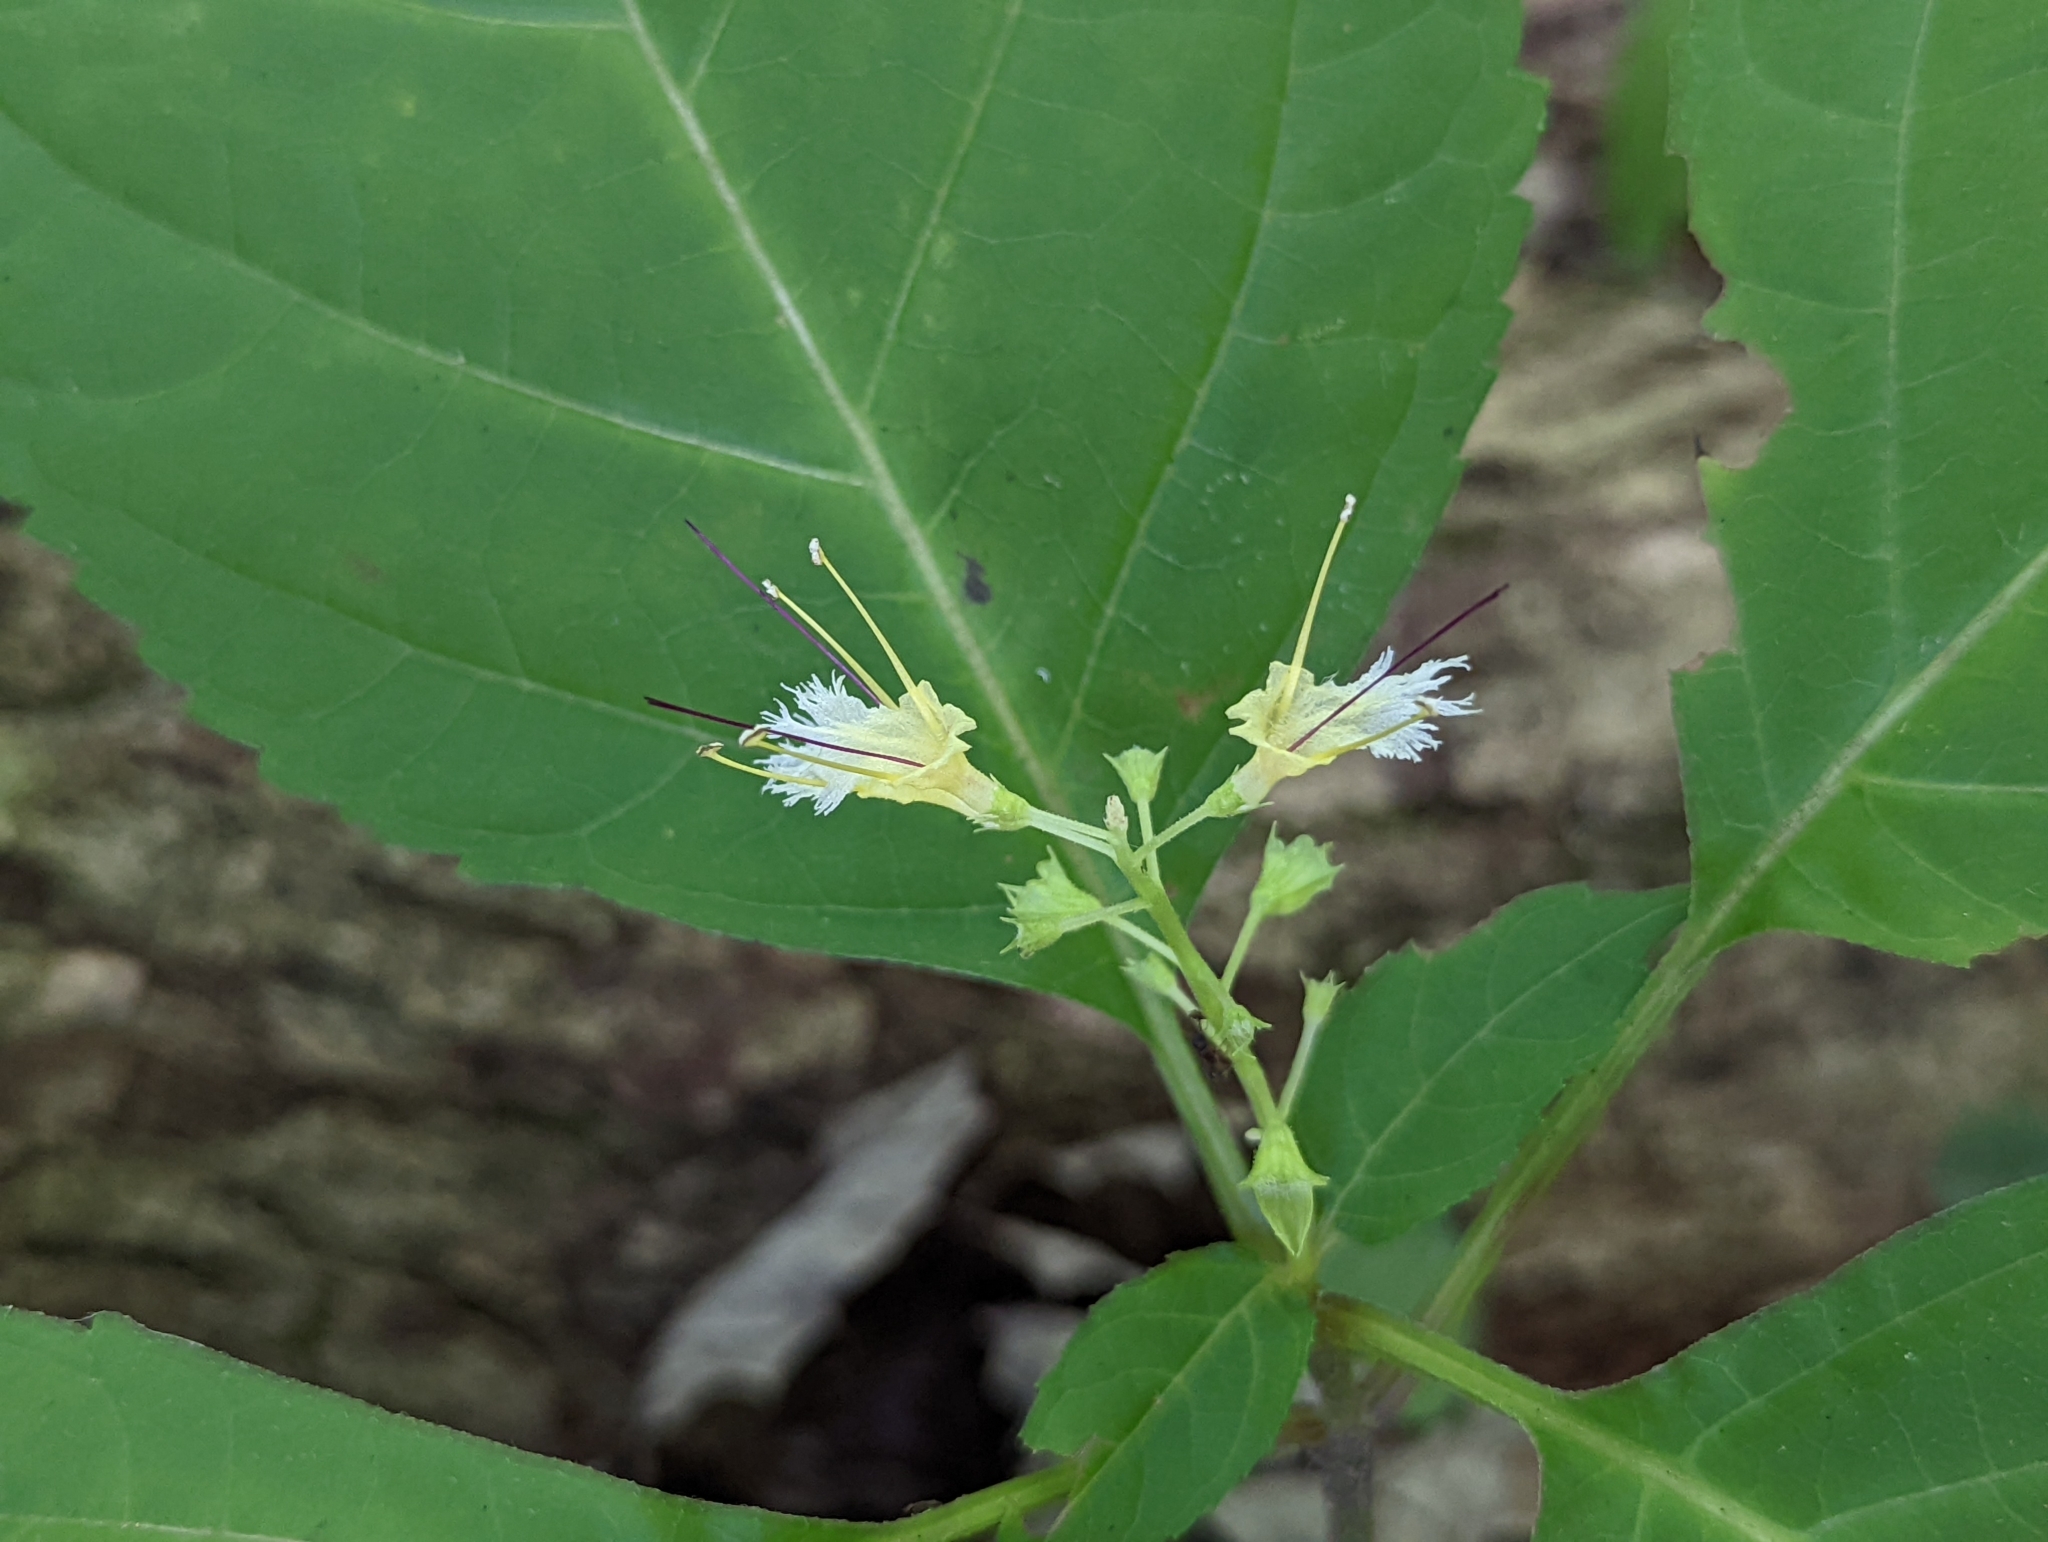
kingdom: Plantae
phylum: Tracheophyta
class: Magnoliopsida
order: Lamiales
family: Lamiaceae
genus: Collinsonia
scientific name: Collinsonia canadensis
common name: Northern horsebalm
